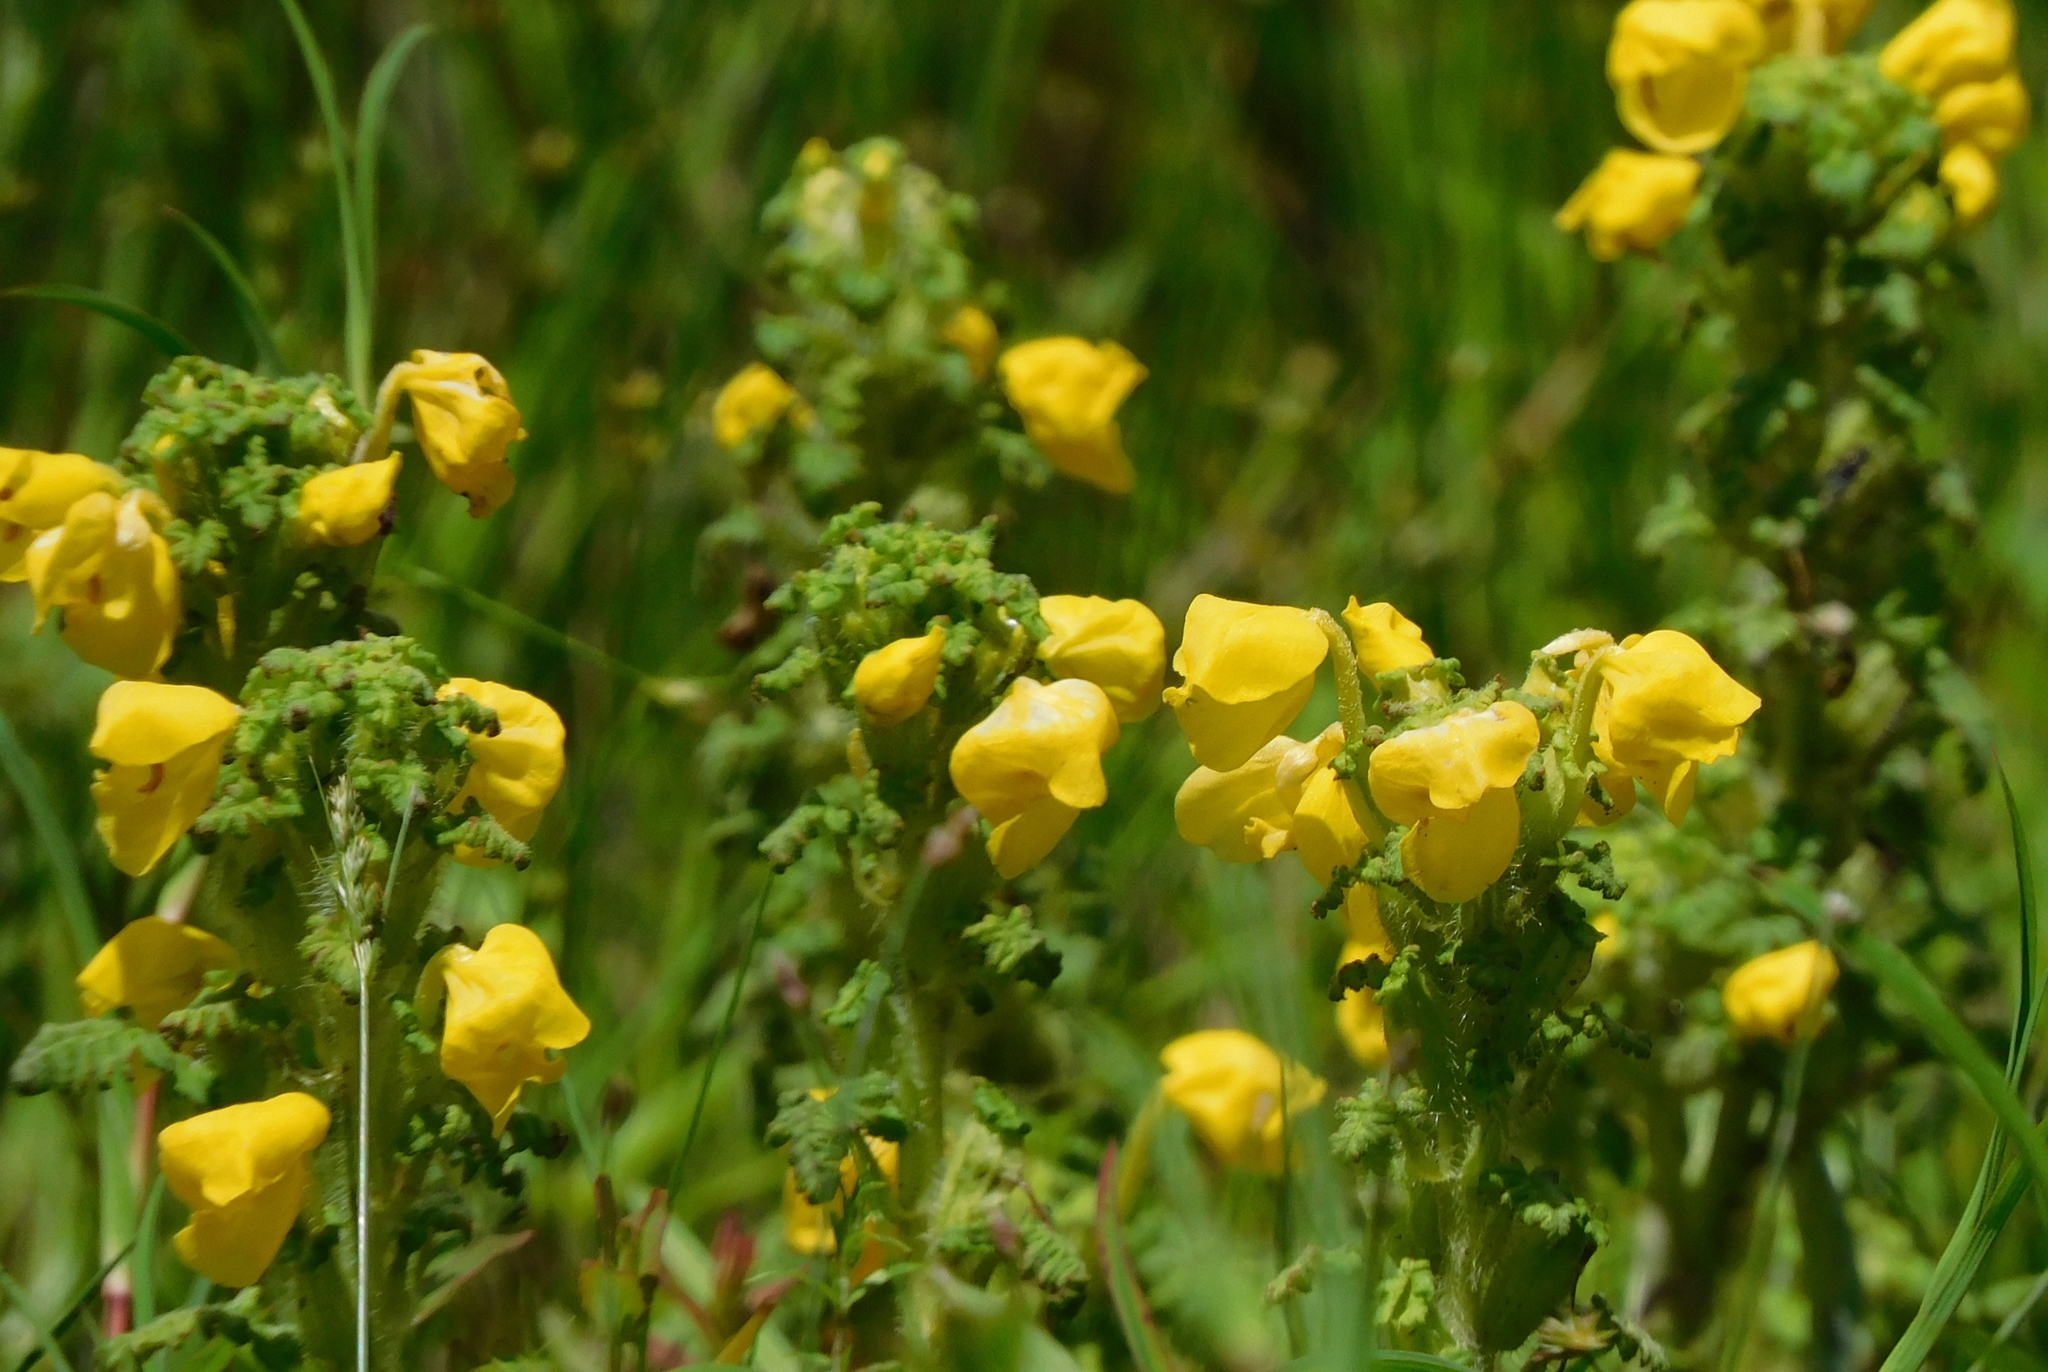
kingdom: Plantae
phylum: Tracheophyta
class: Magnoliopsida
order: Lamiales
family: Orobanchaceae
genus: Pedicularis
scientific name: Pedicularis hoffmeisteri
